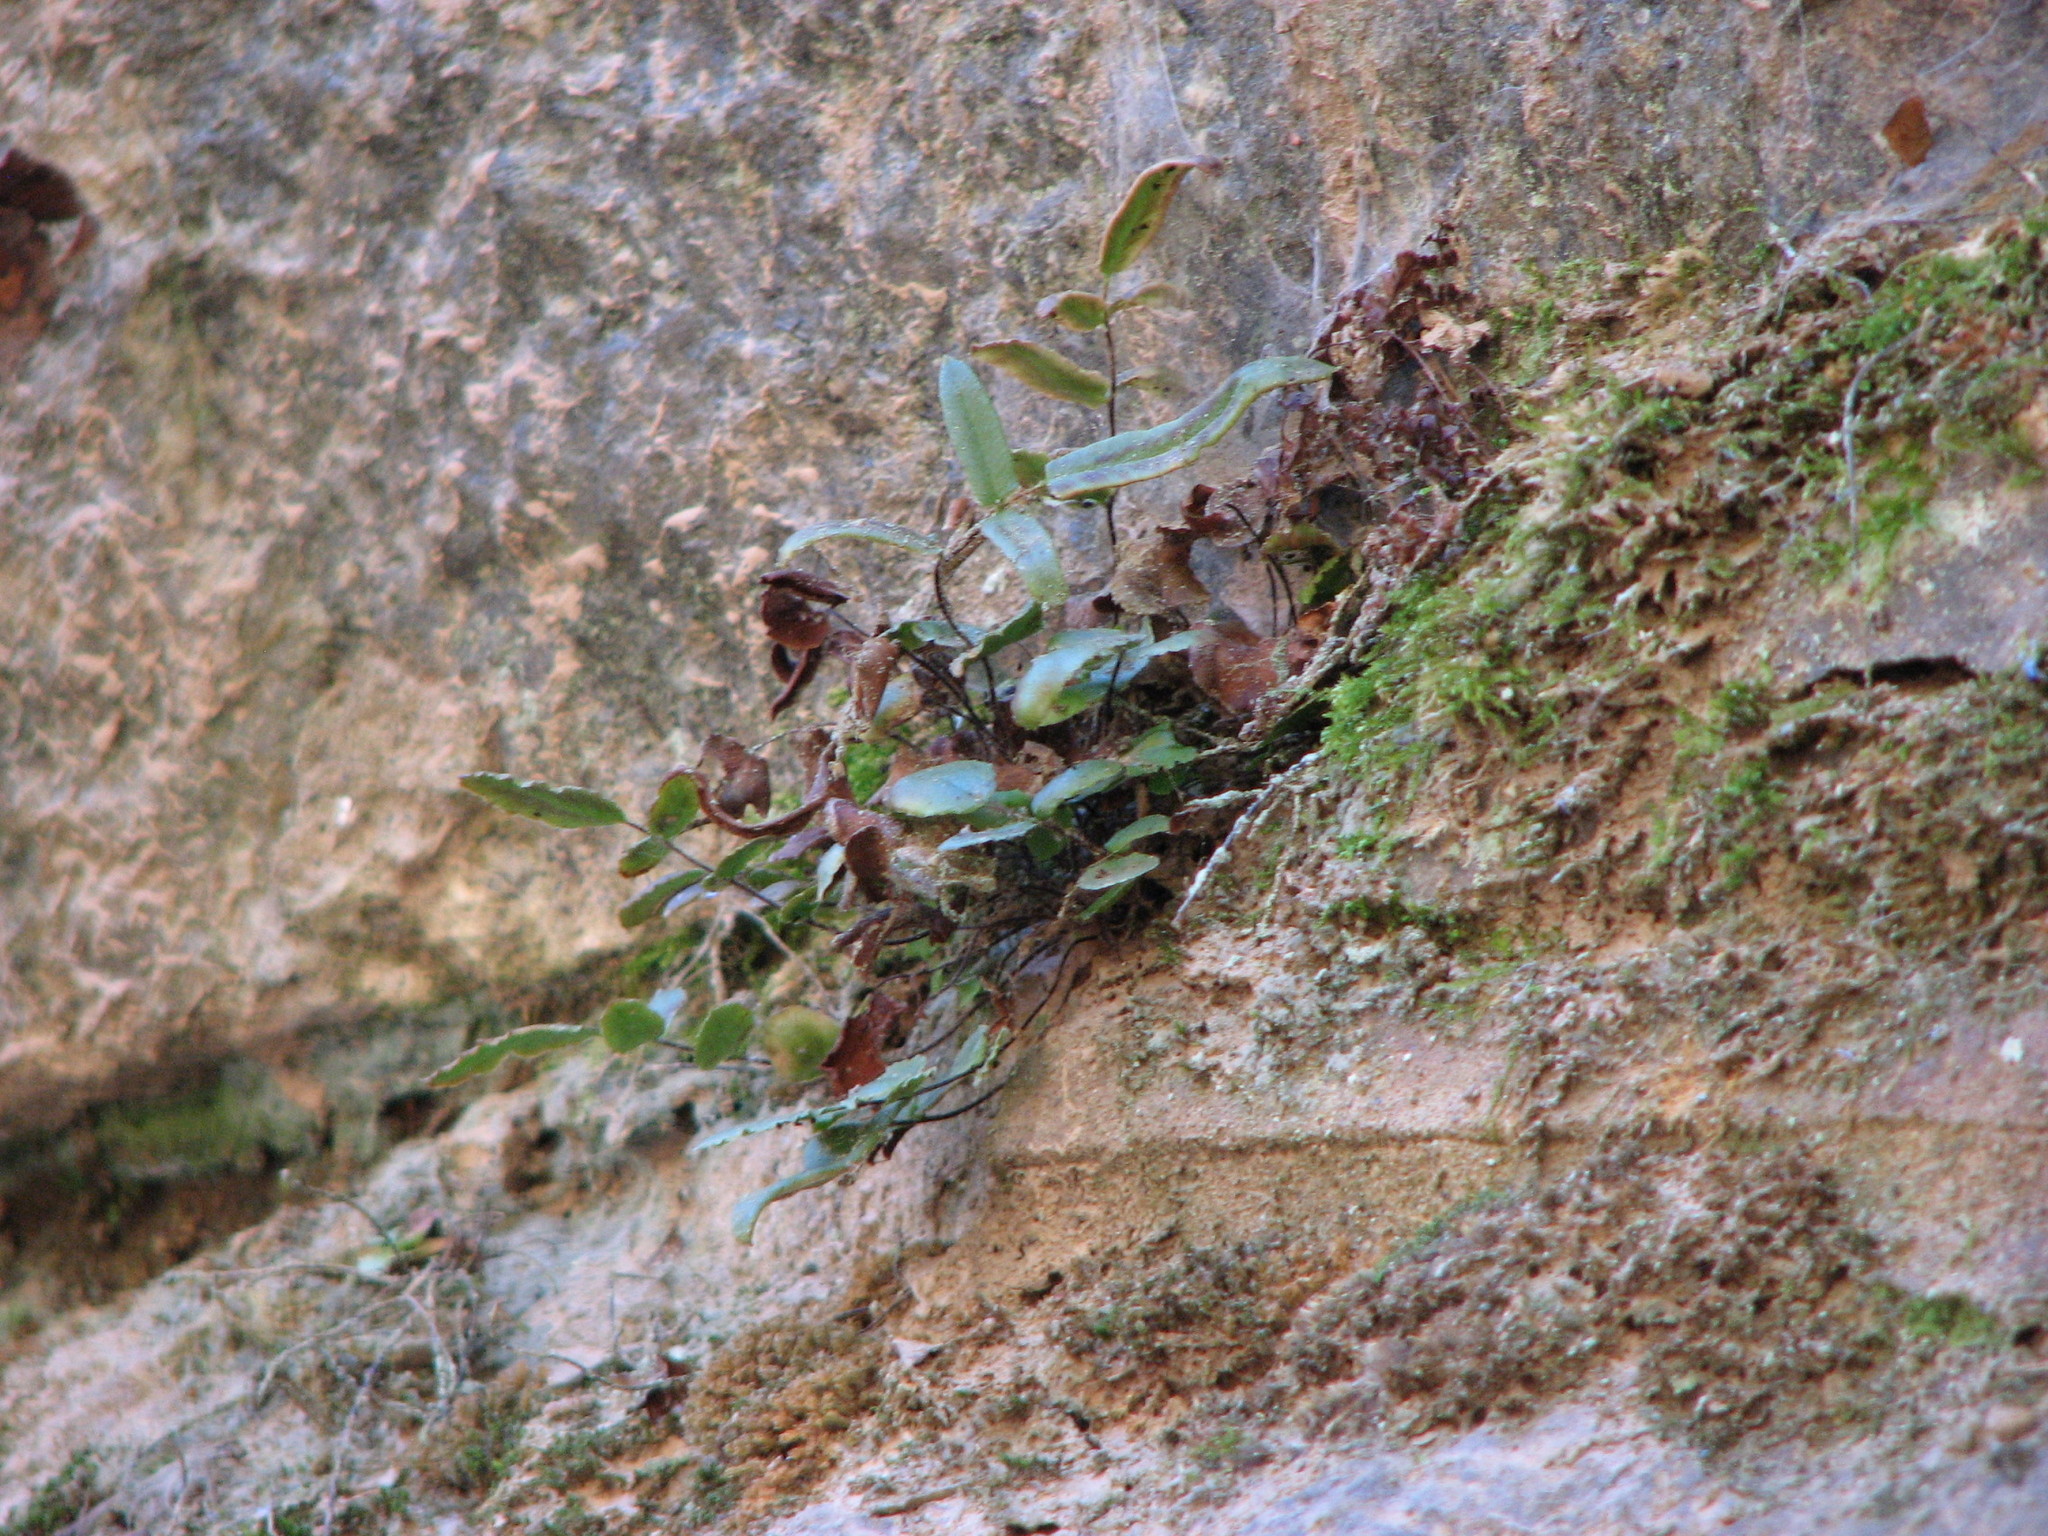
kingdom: Plantae
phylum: Tracheophyta
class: Polypodiopsida
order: Polypodiales
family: Pteridaceae
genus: Pellaea
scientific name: Pellaea atropurpurea
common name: Hairy cliffbrake
